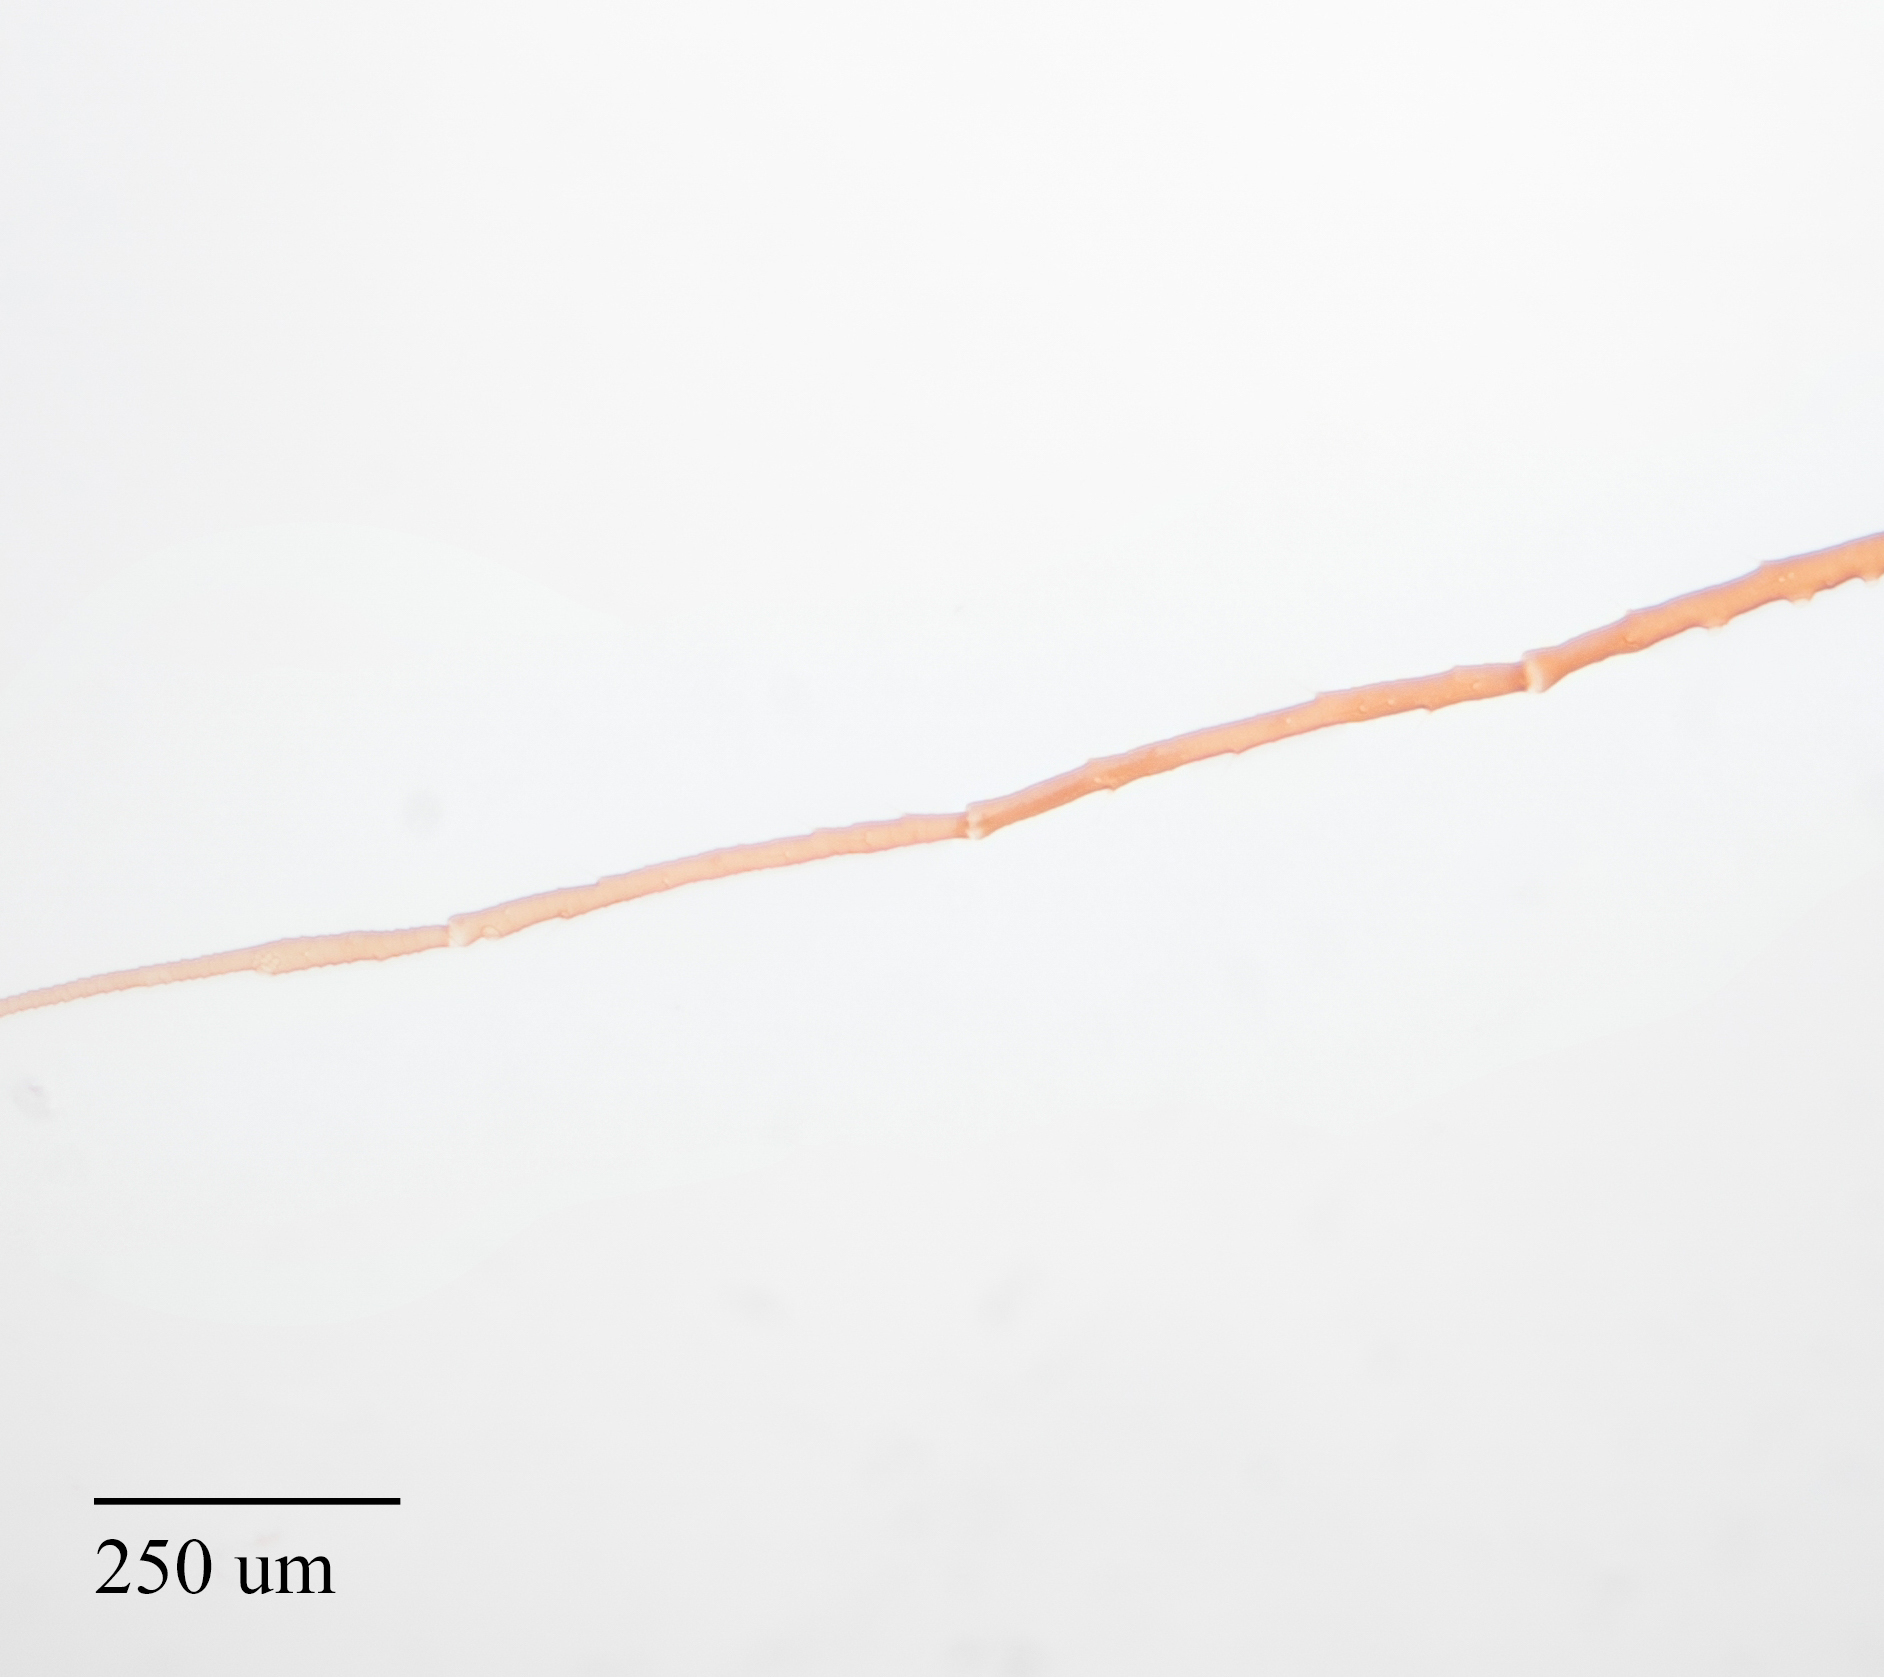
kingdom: Animalia
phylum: Arthropoda
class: Insecta
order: Hemiptera
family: Aphididae
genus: Uroleucon
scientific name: Uroleucon picridis
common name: Aphid
